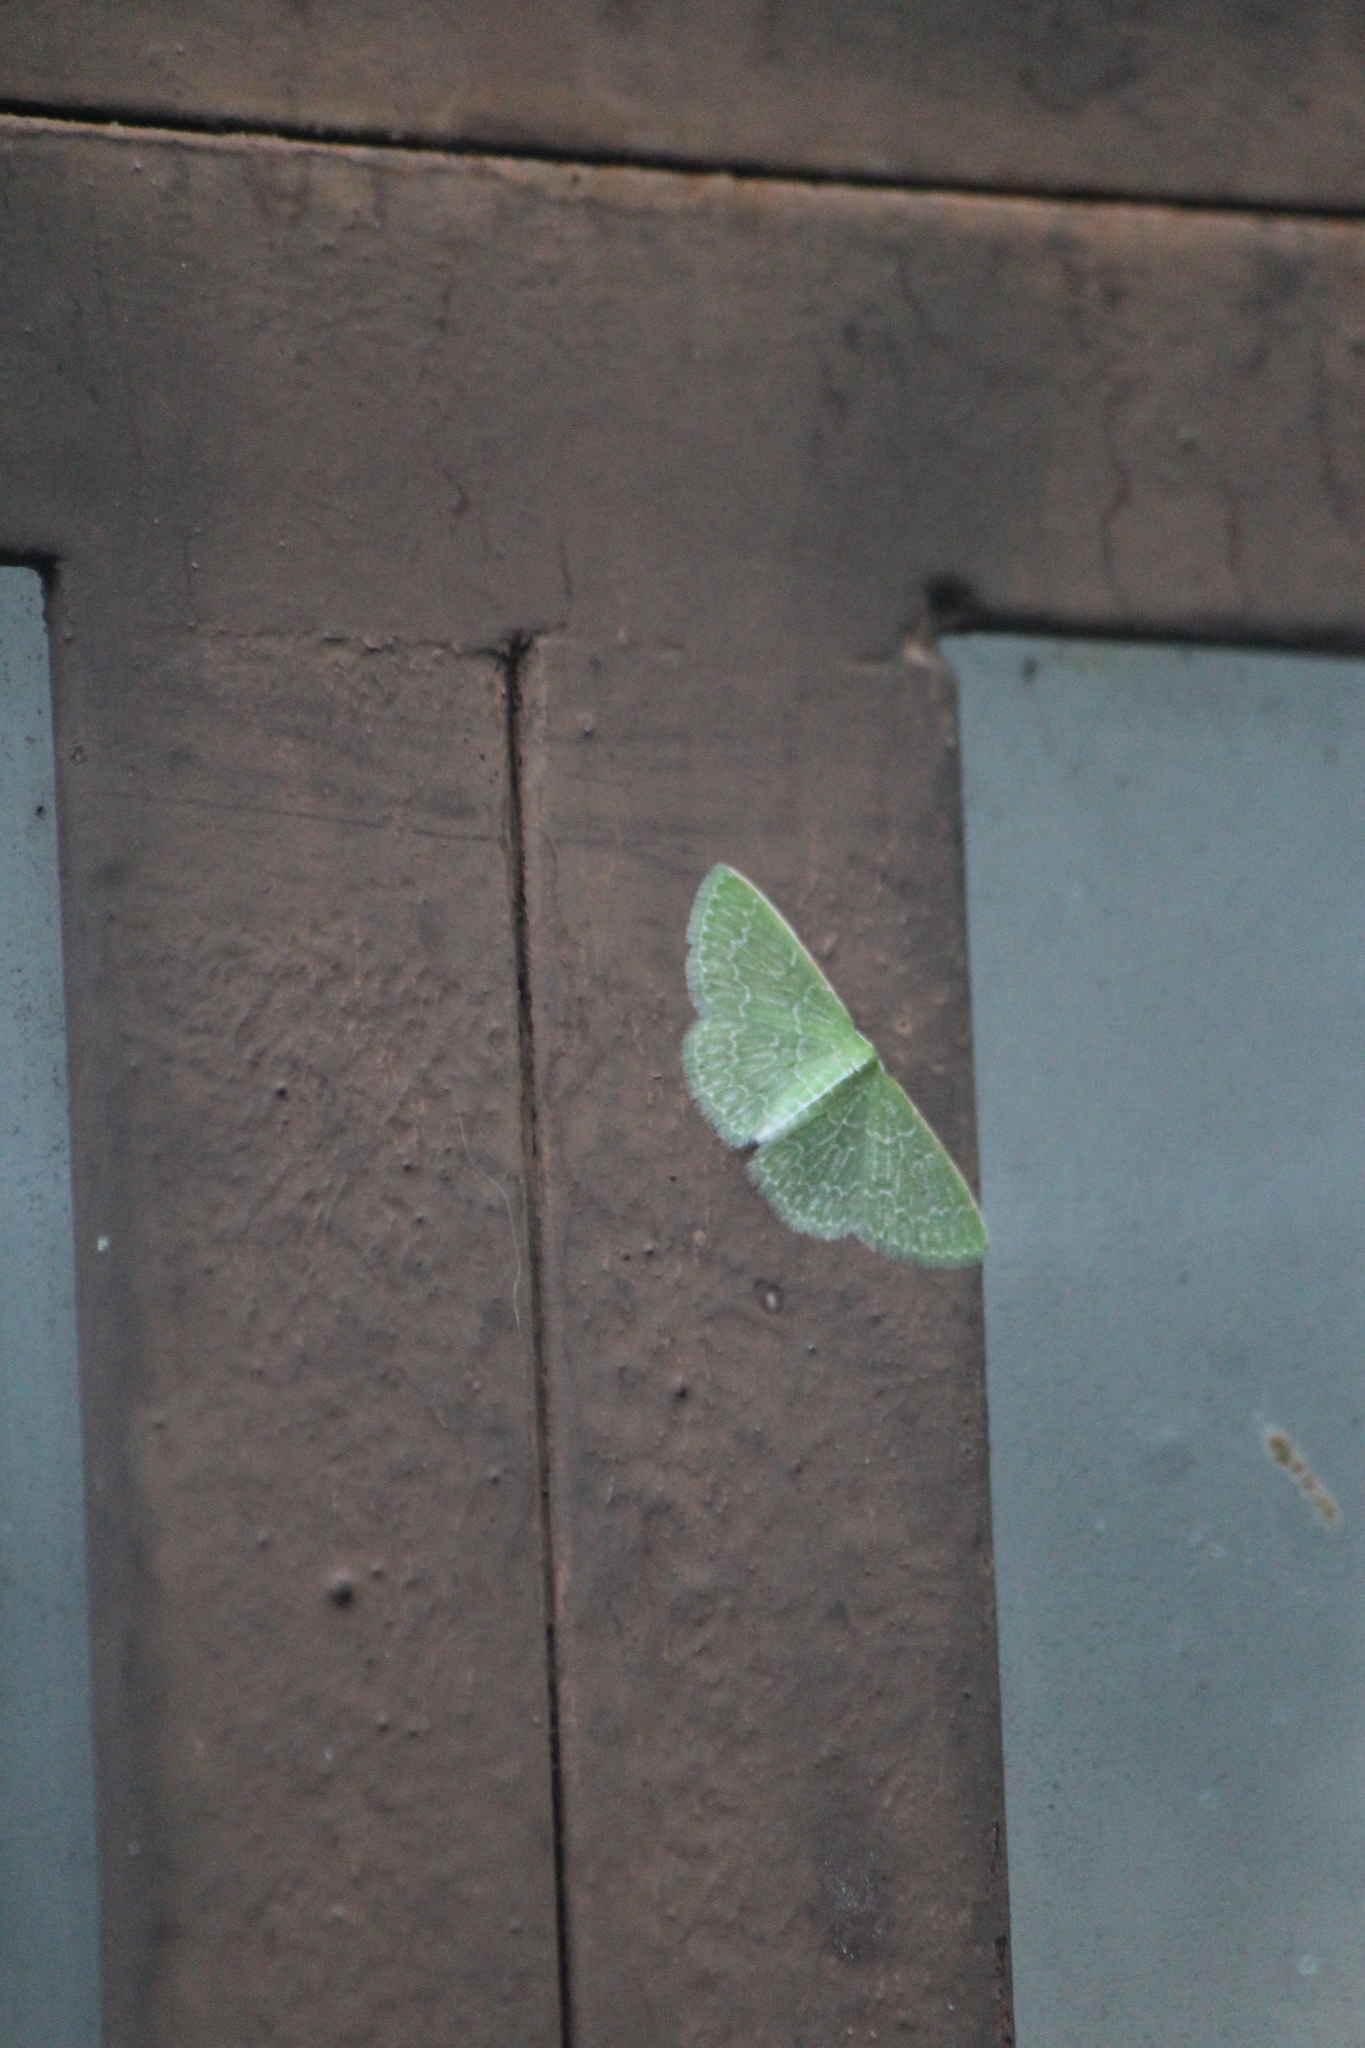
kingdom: Animalia
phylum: Arthropoda
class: Insecta
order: Lepidoptera
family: Geometridae
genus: Synchlora
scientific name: Synchlora frondaria
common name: Southern emerald
